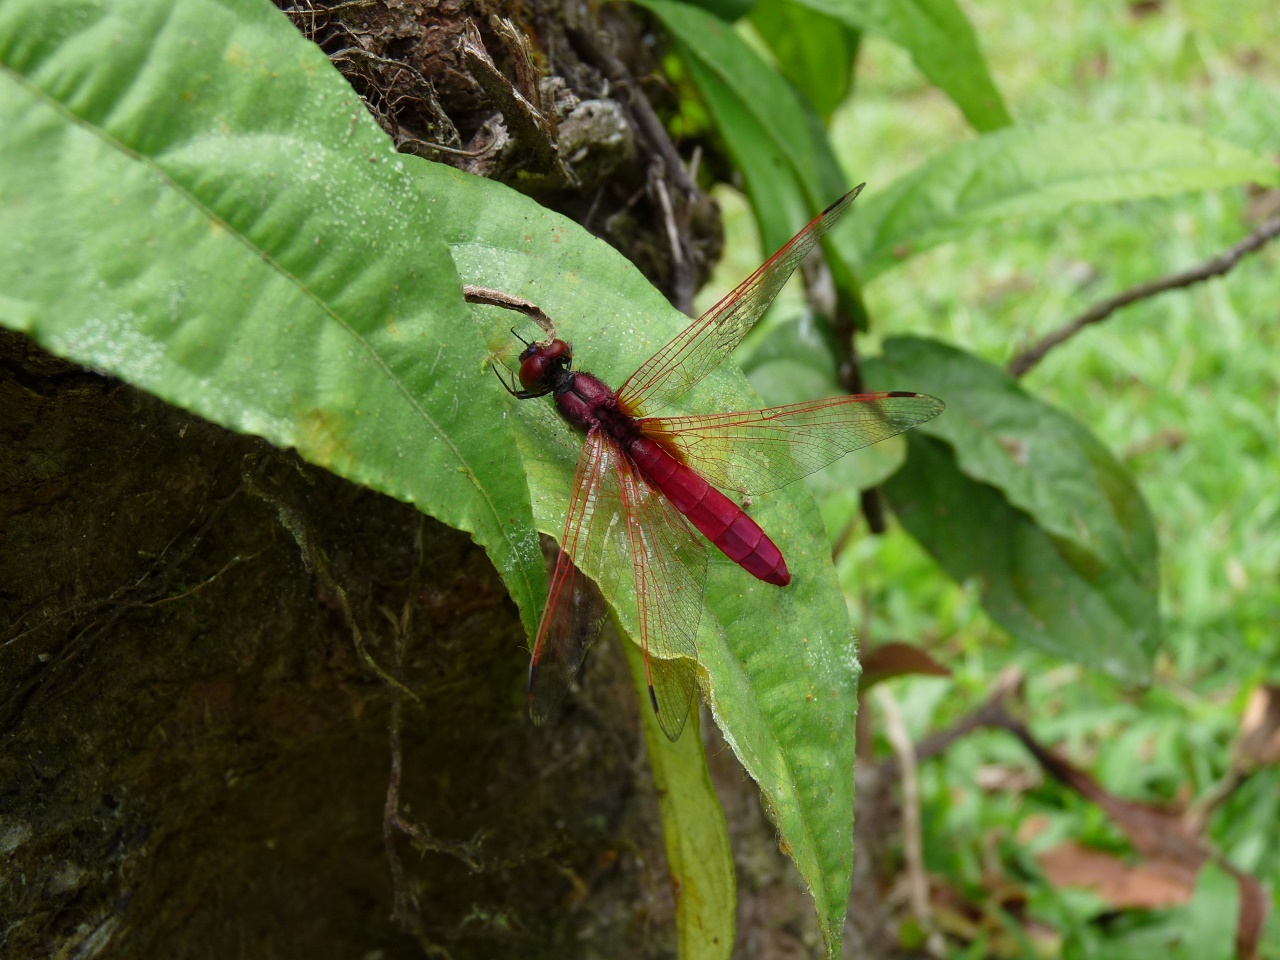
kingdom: Animalia
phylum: Arthropoda
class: Insecta
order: Odonata
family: Libellulidae
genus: Trithemis
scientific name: Trithemis aurora
